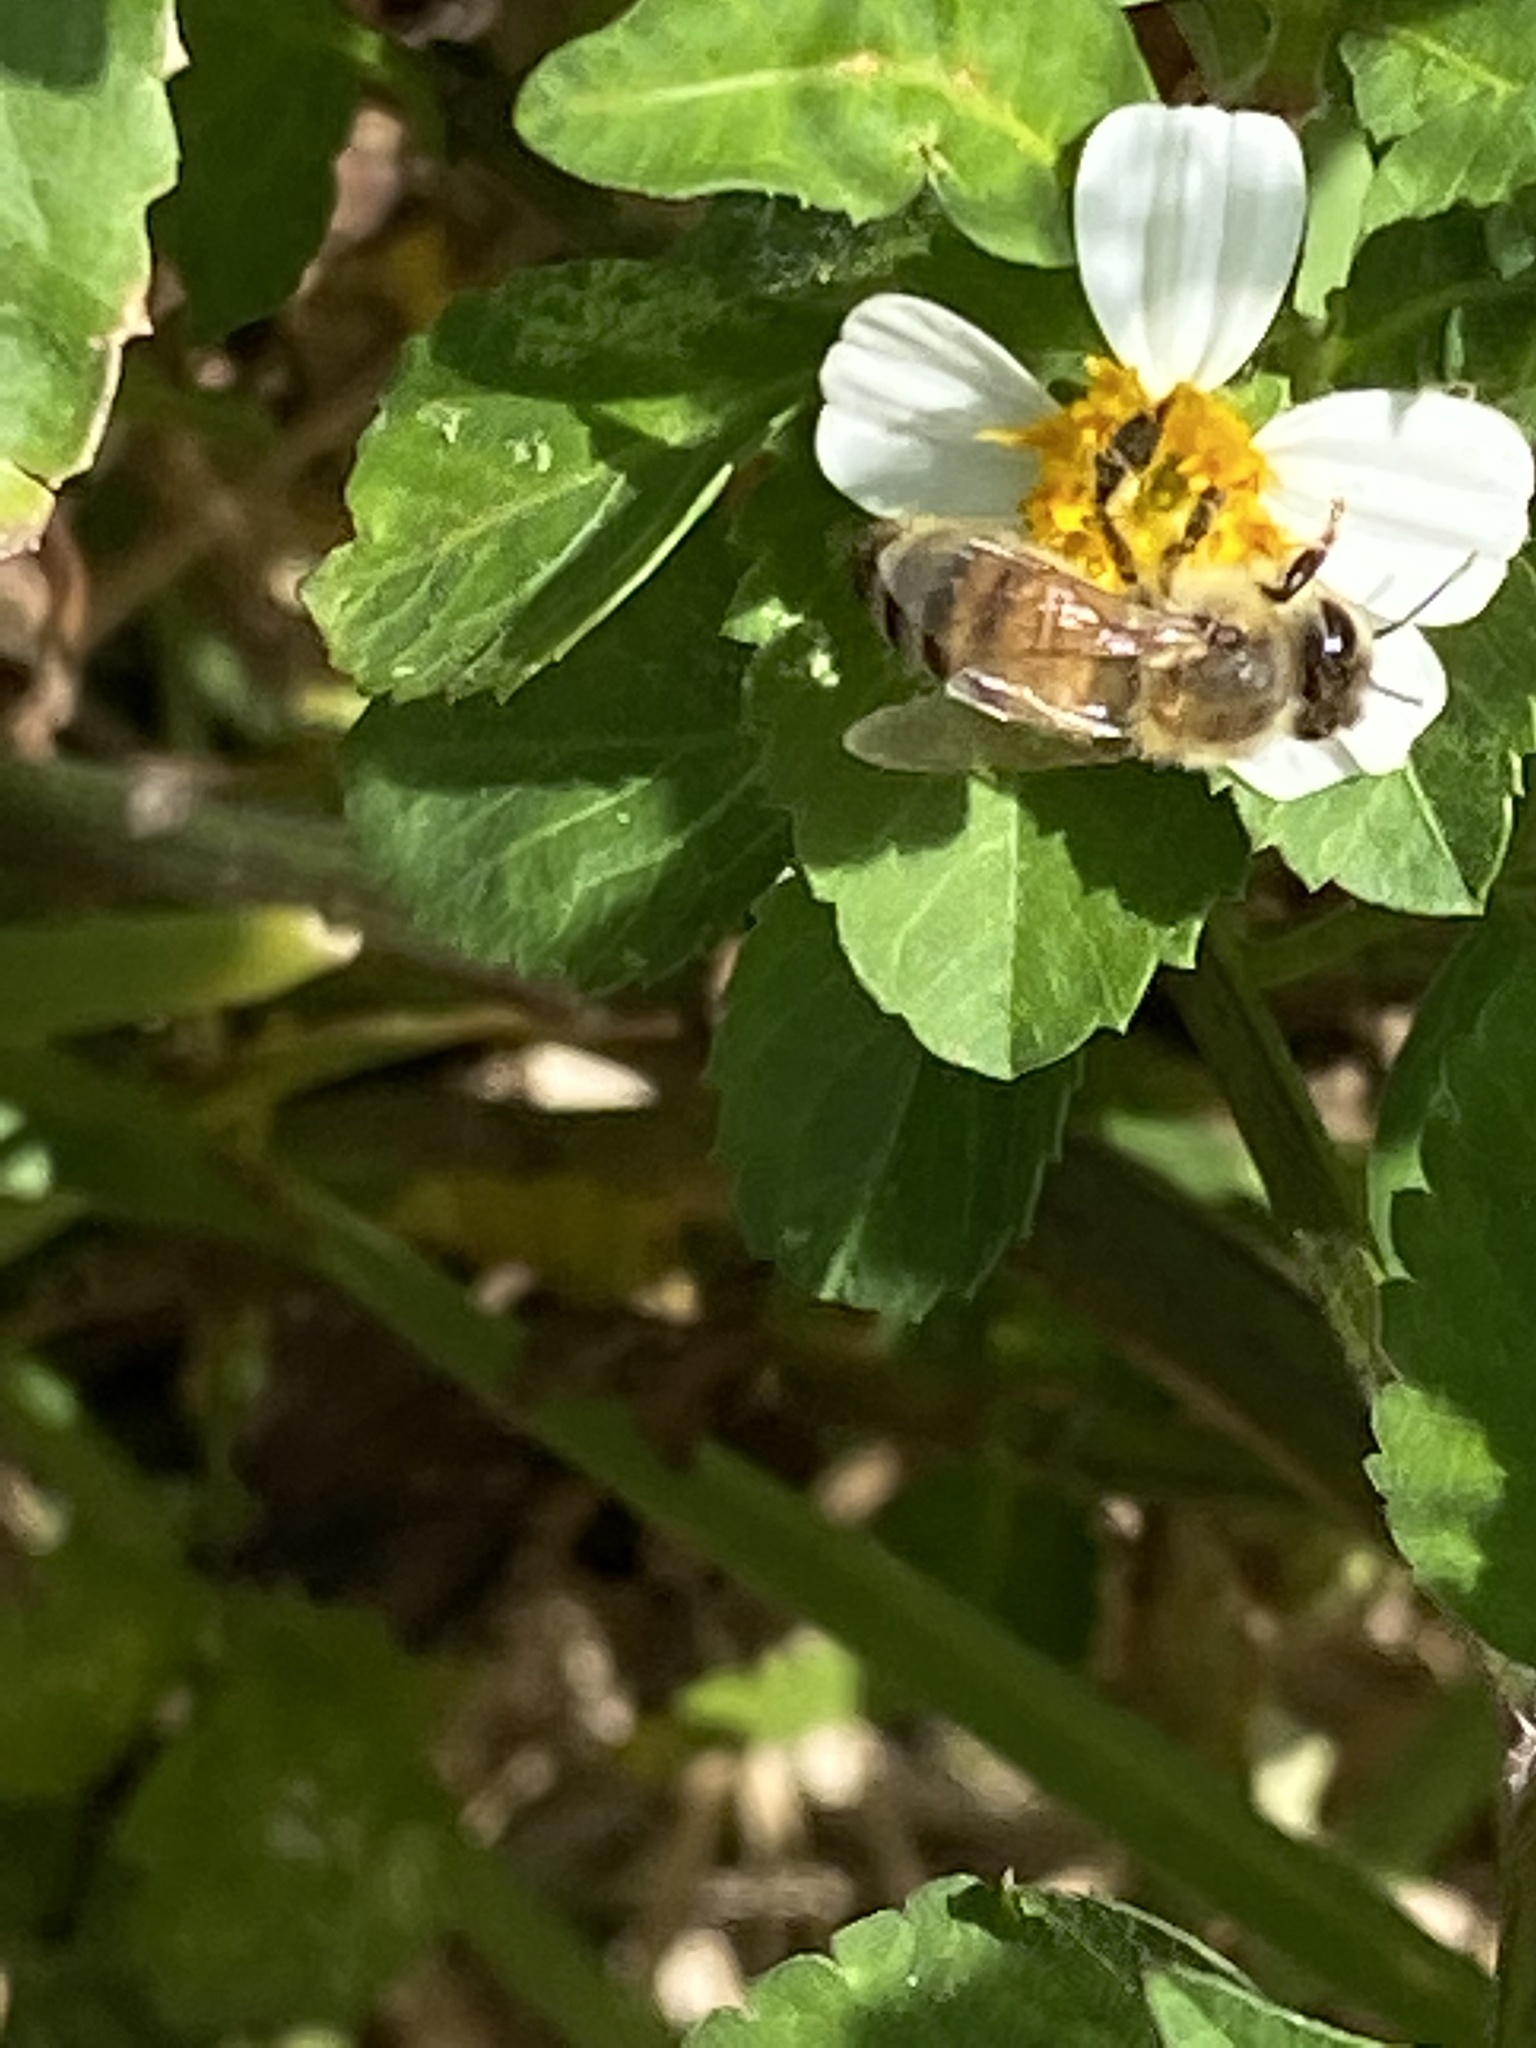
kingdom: Animalia
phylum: Arthropoda
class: Insecta
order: Hymenoptera
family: Apidae
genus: Apis
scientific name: Apis mellifera
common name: Honey bee
